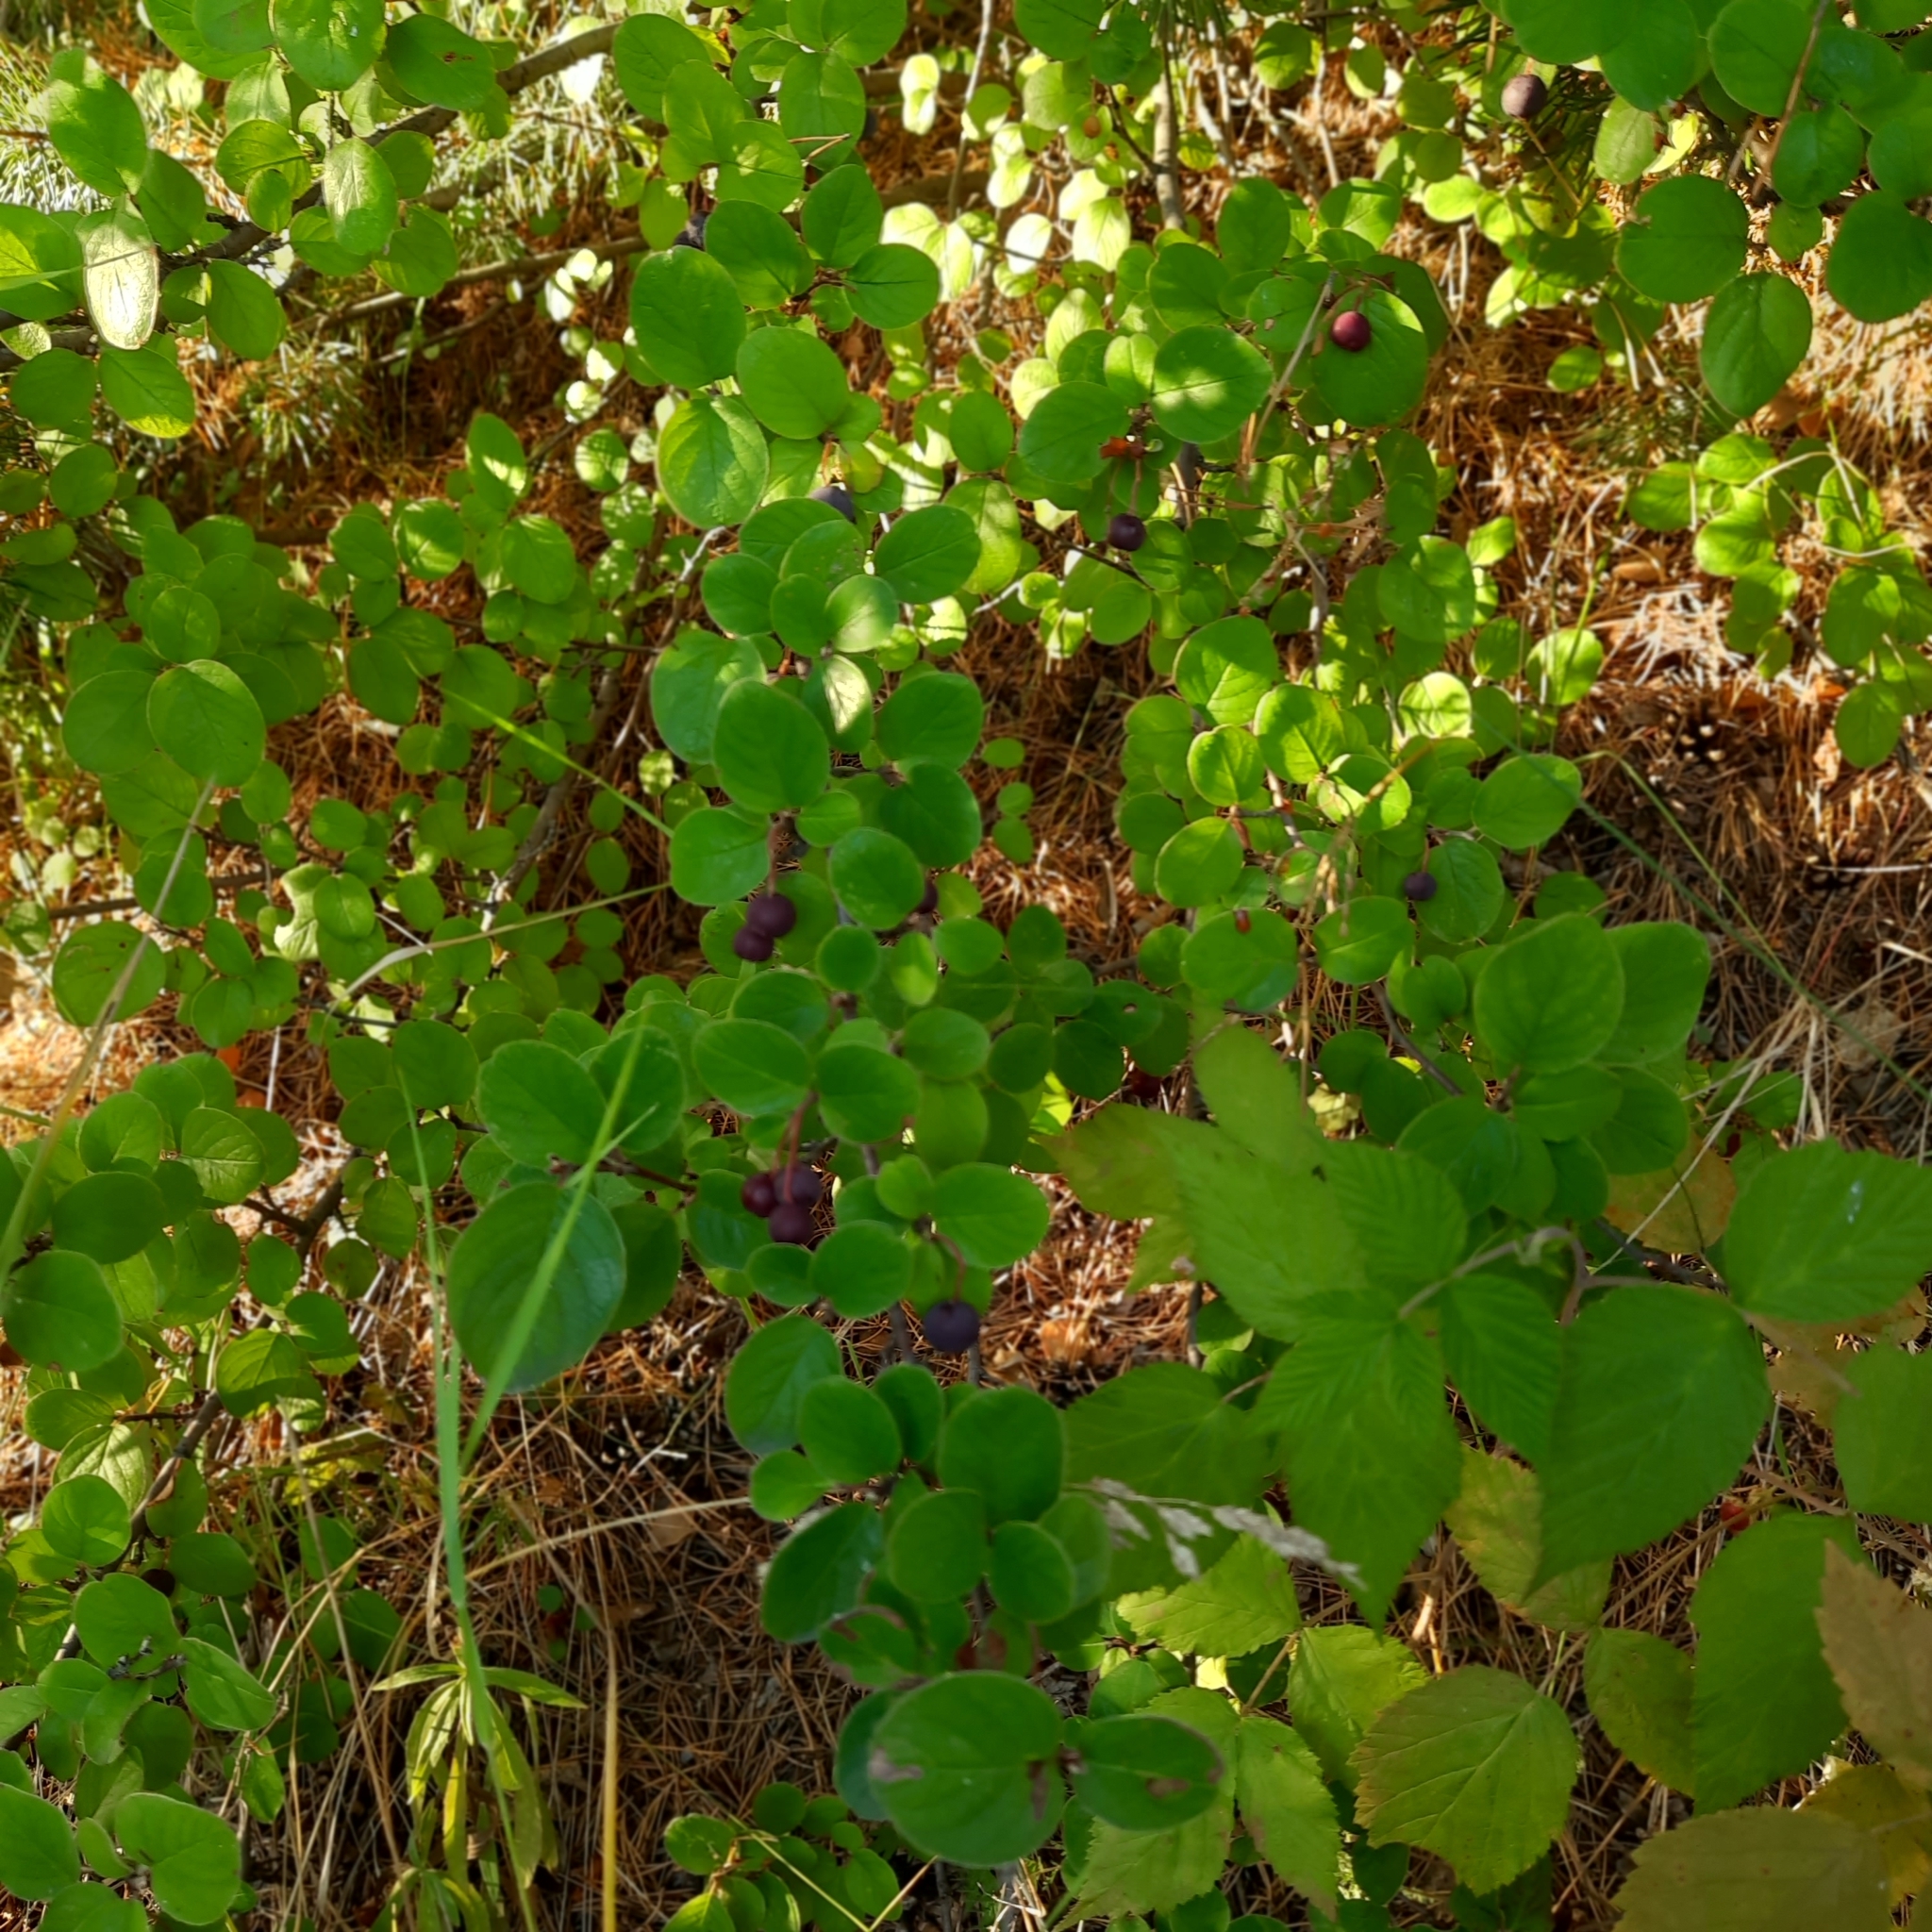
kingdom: Plantae
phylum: Tracheophyta
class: Magnoliopsida
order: Rosales
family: Rosaceae
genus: Cotoneaster
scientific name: Cotoneaster melanocarpus
